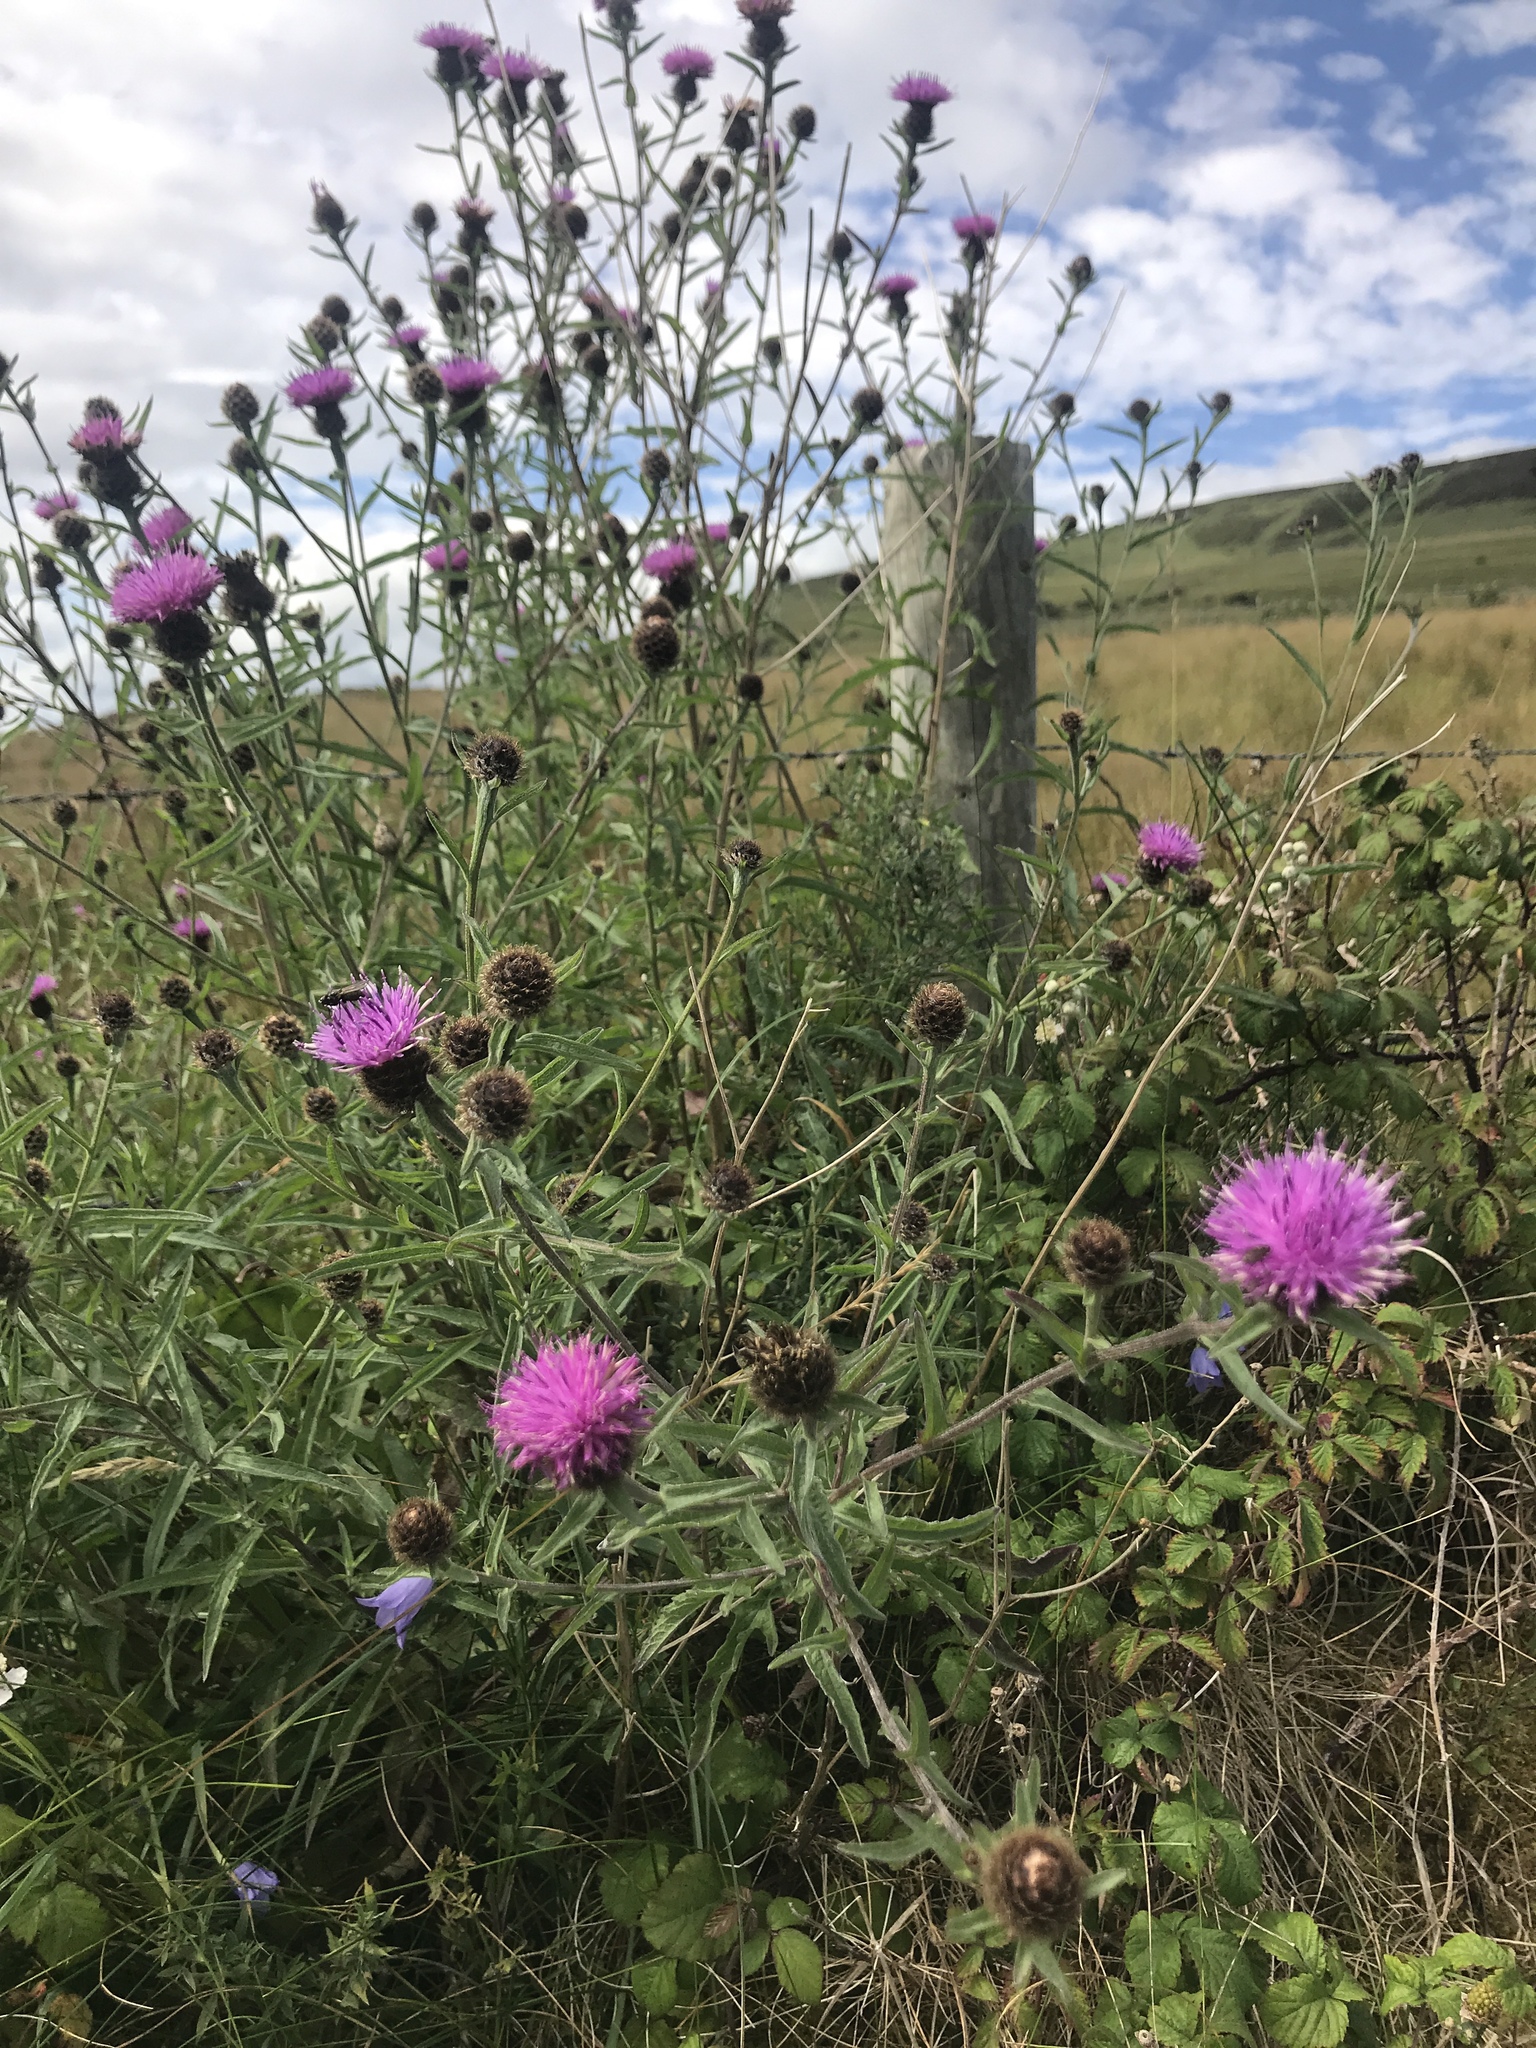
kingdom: Plantae
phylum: Tracheophyta
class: Magnoliopsida
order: Asterales
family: Asteraceae
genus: Centaurea
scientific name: Centaurea nigra
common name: Lesser knapweed
